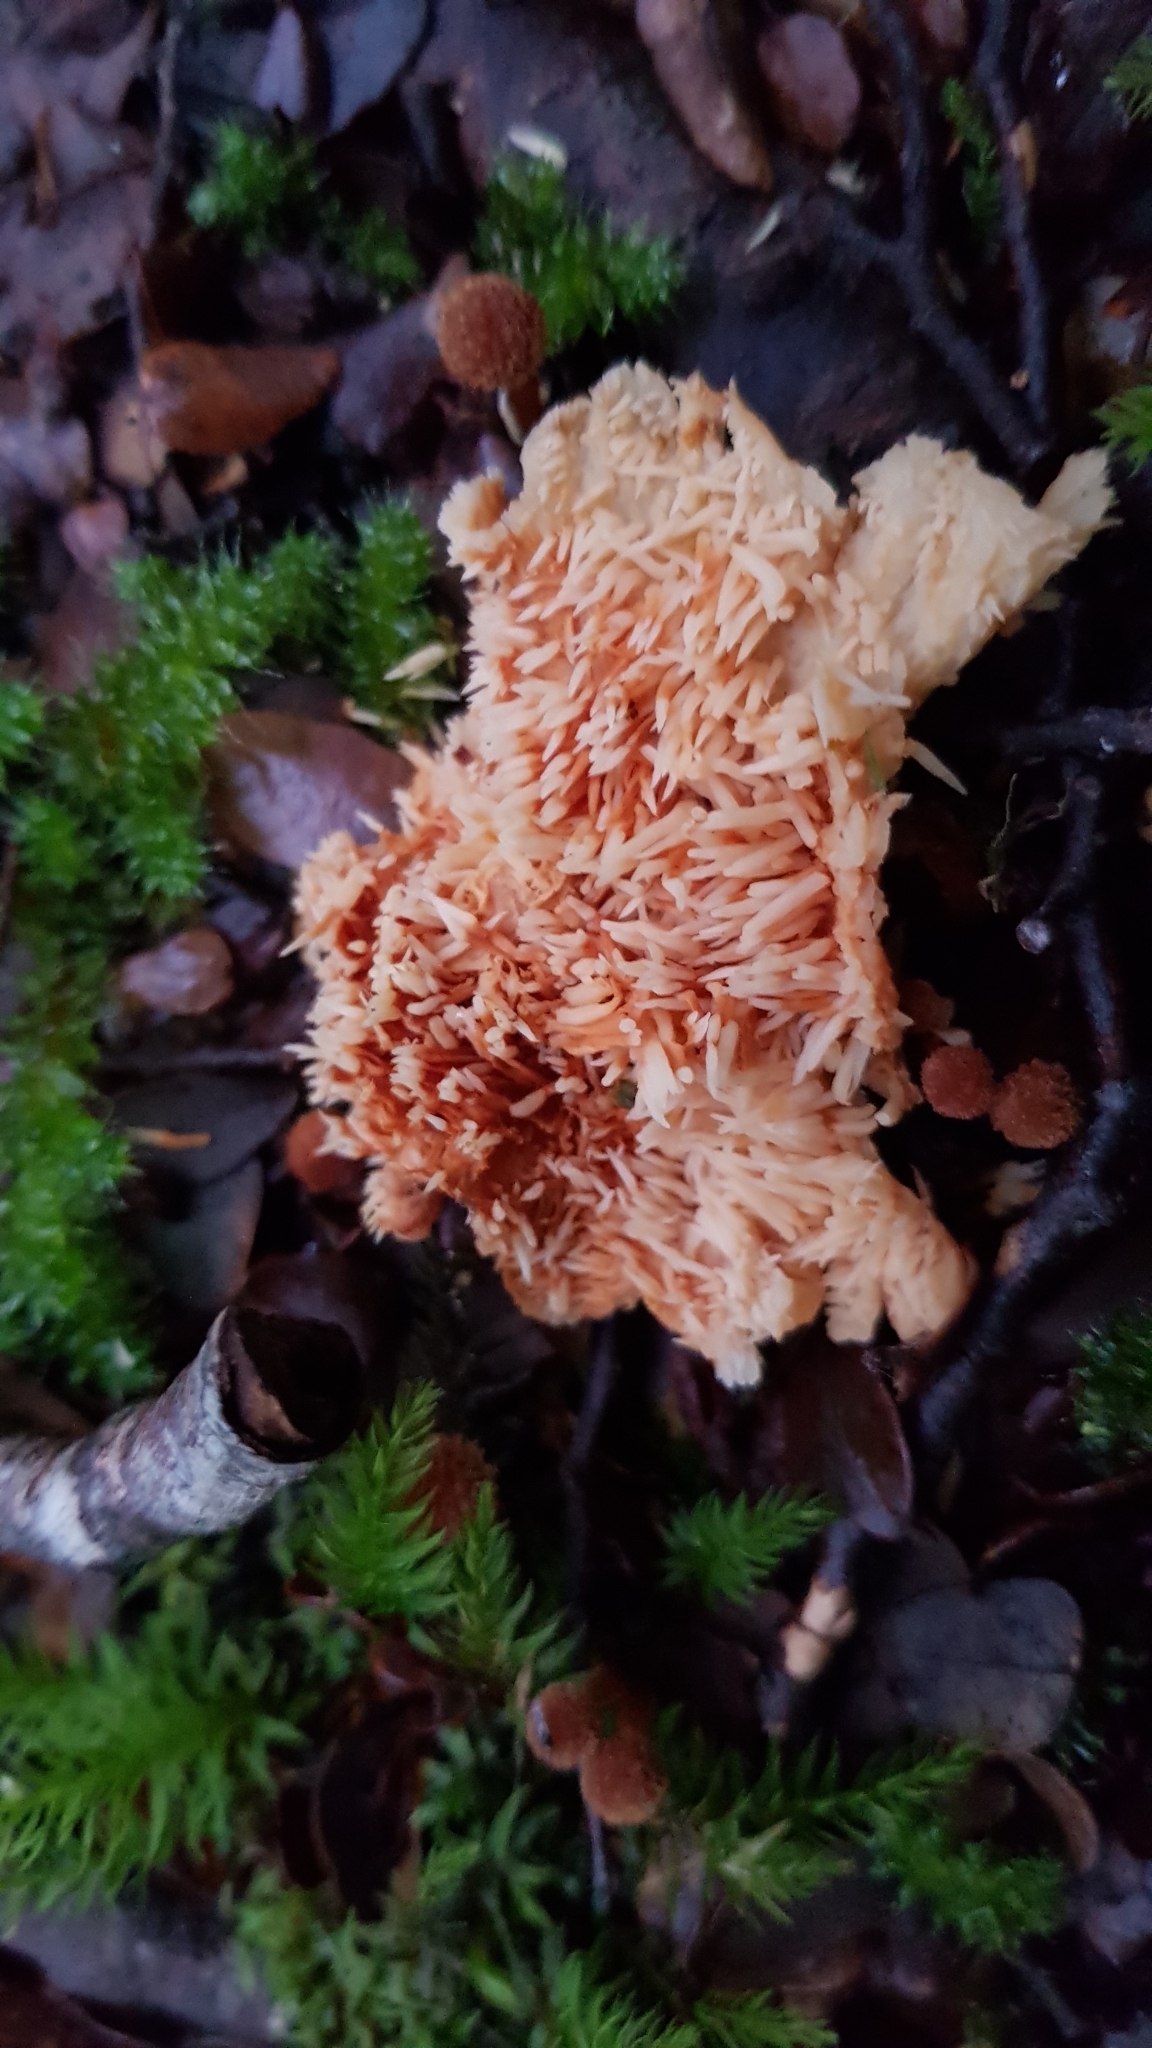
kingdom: Fungi
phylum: Basidiomycota
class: Agaricomycetes
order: Cantharellales
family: Hydnaceae
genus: Hydnum
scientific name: Hydnum ambustum
